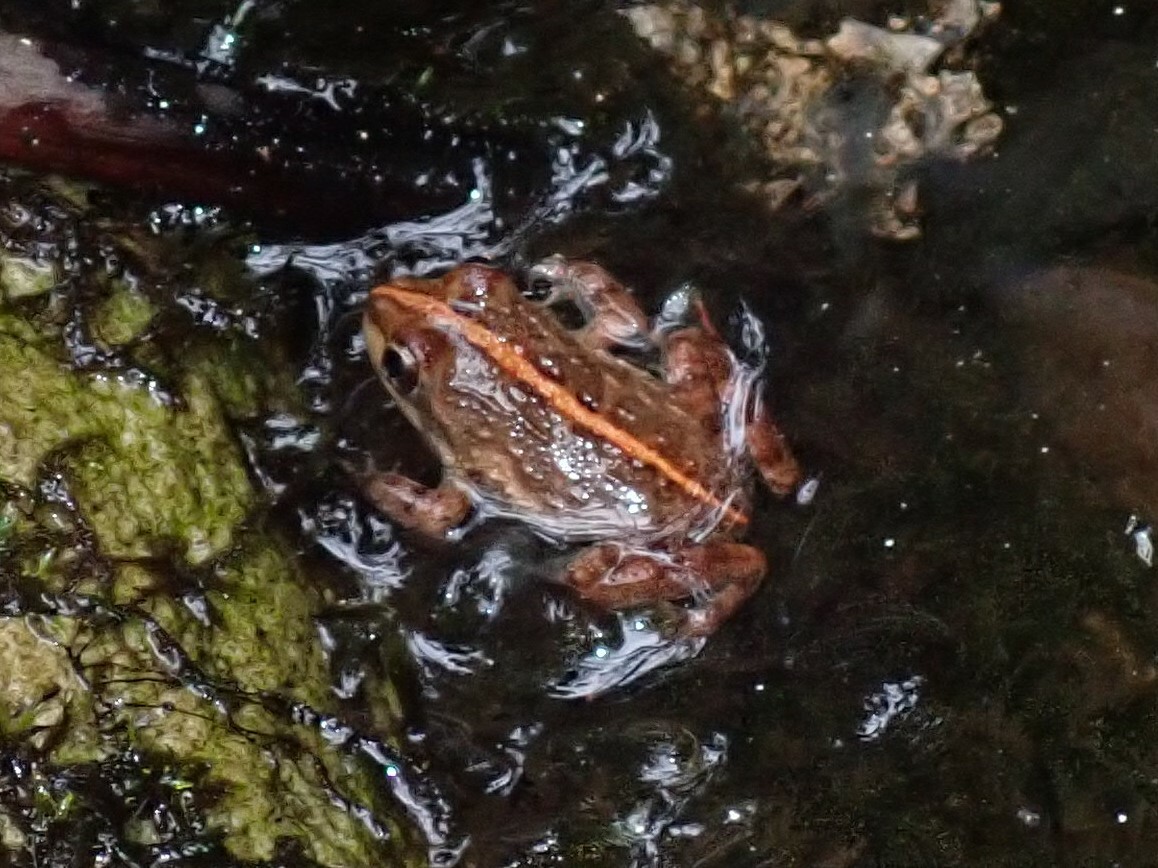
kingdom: Animalia
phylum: Chordata
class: Amphibia
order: Anura
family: Pyxicephalidae
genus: Amietia
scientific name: Amietia fuscigula
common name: Cape rana
